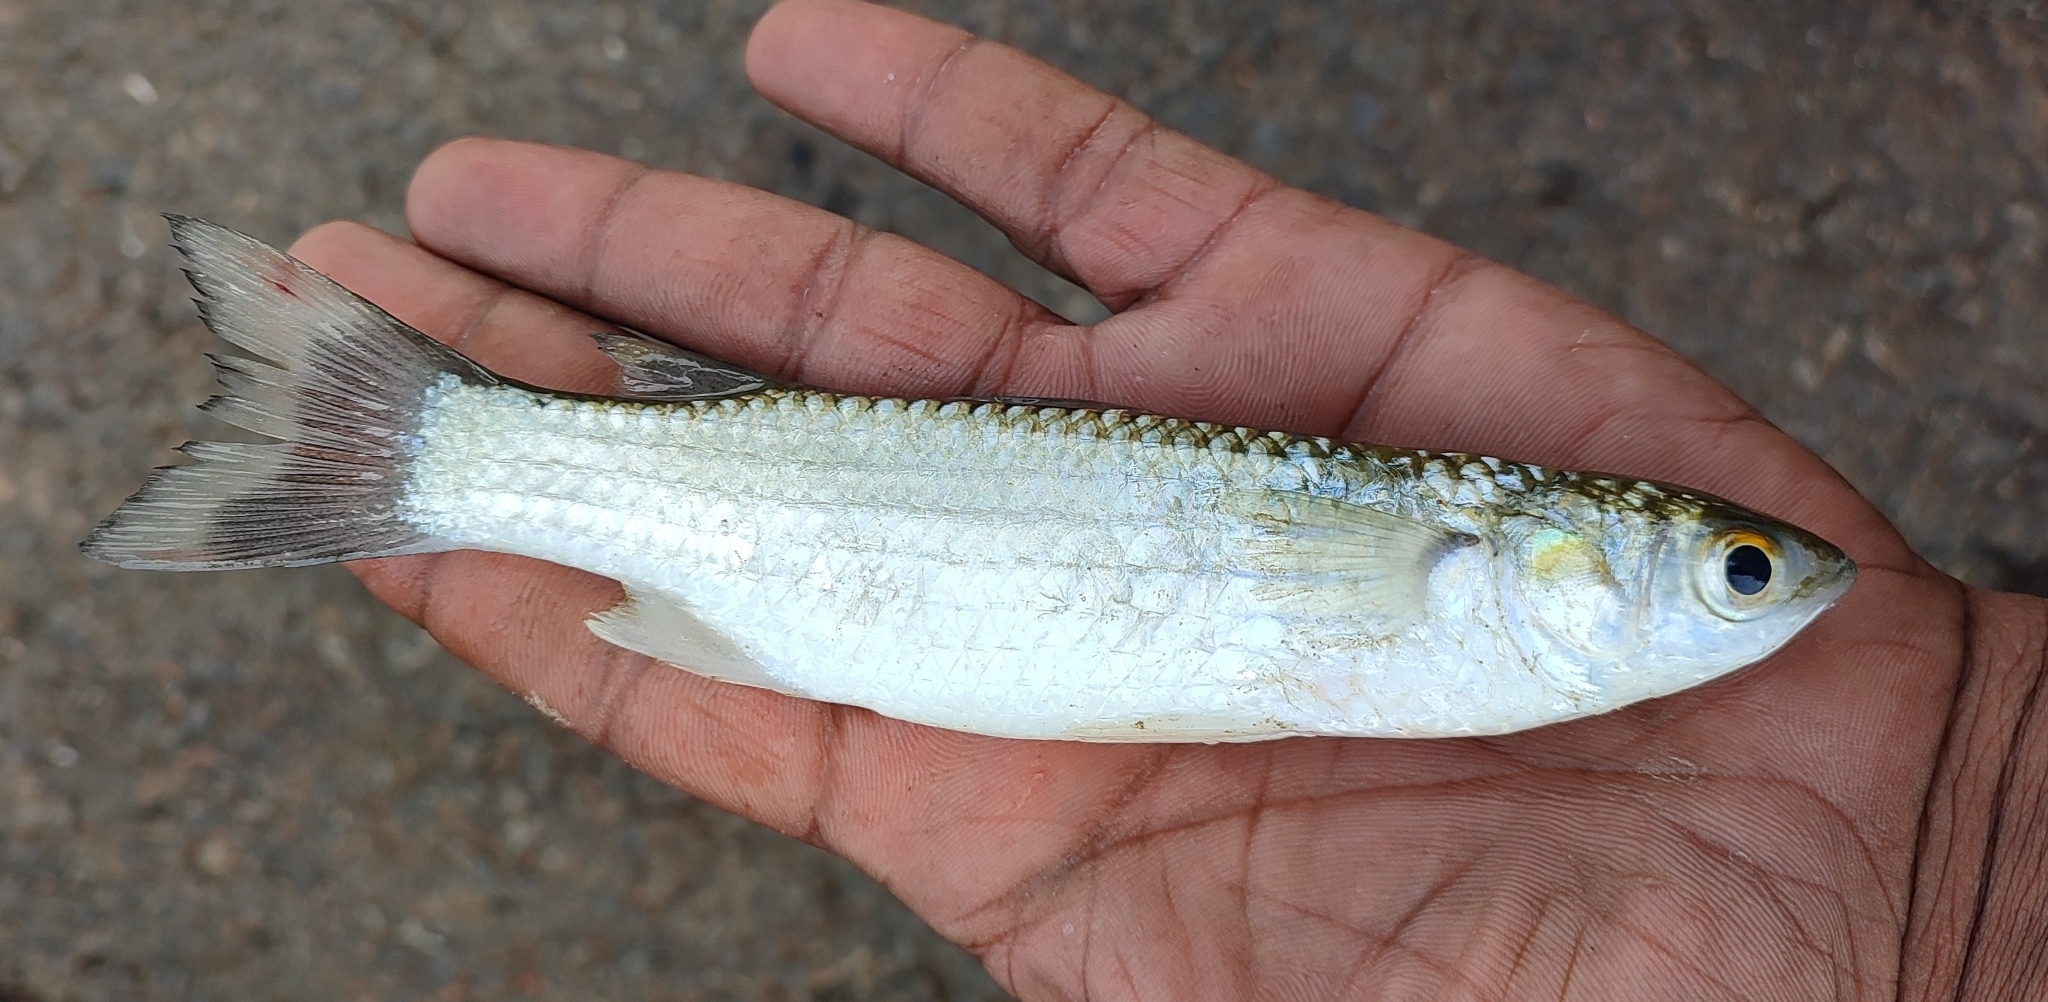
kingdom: Animalia
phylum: Chordata
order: Mugiliformes
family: Mugilidae
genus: Chelon
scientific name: Chelon parsia
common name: Gold-spot mullet
